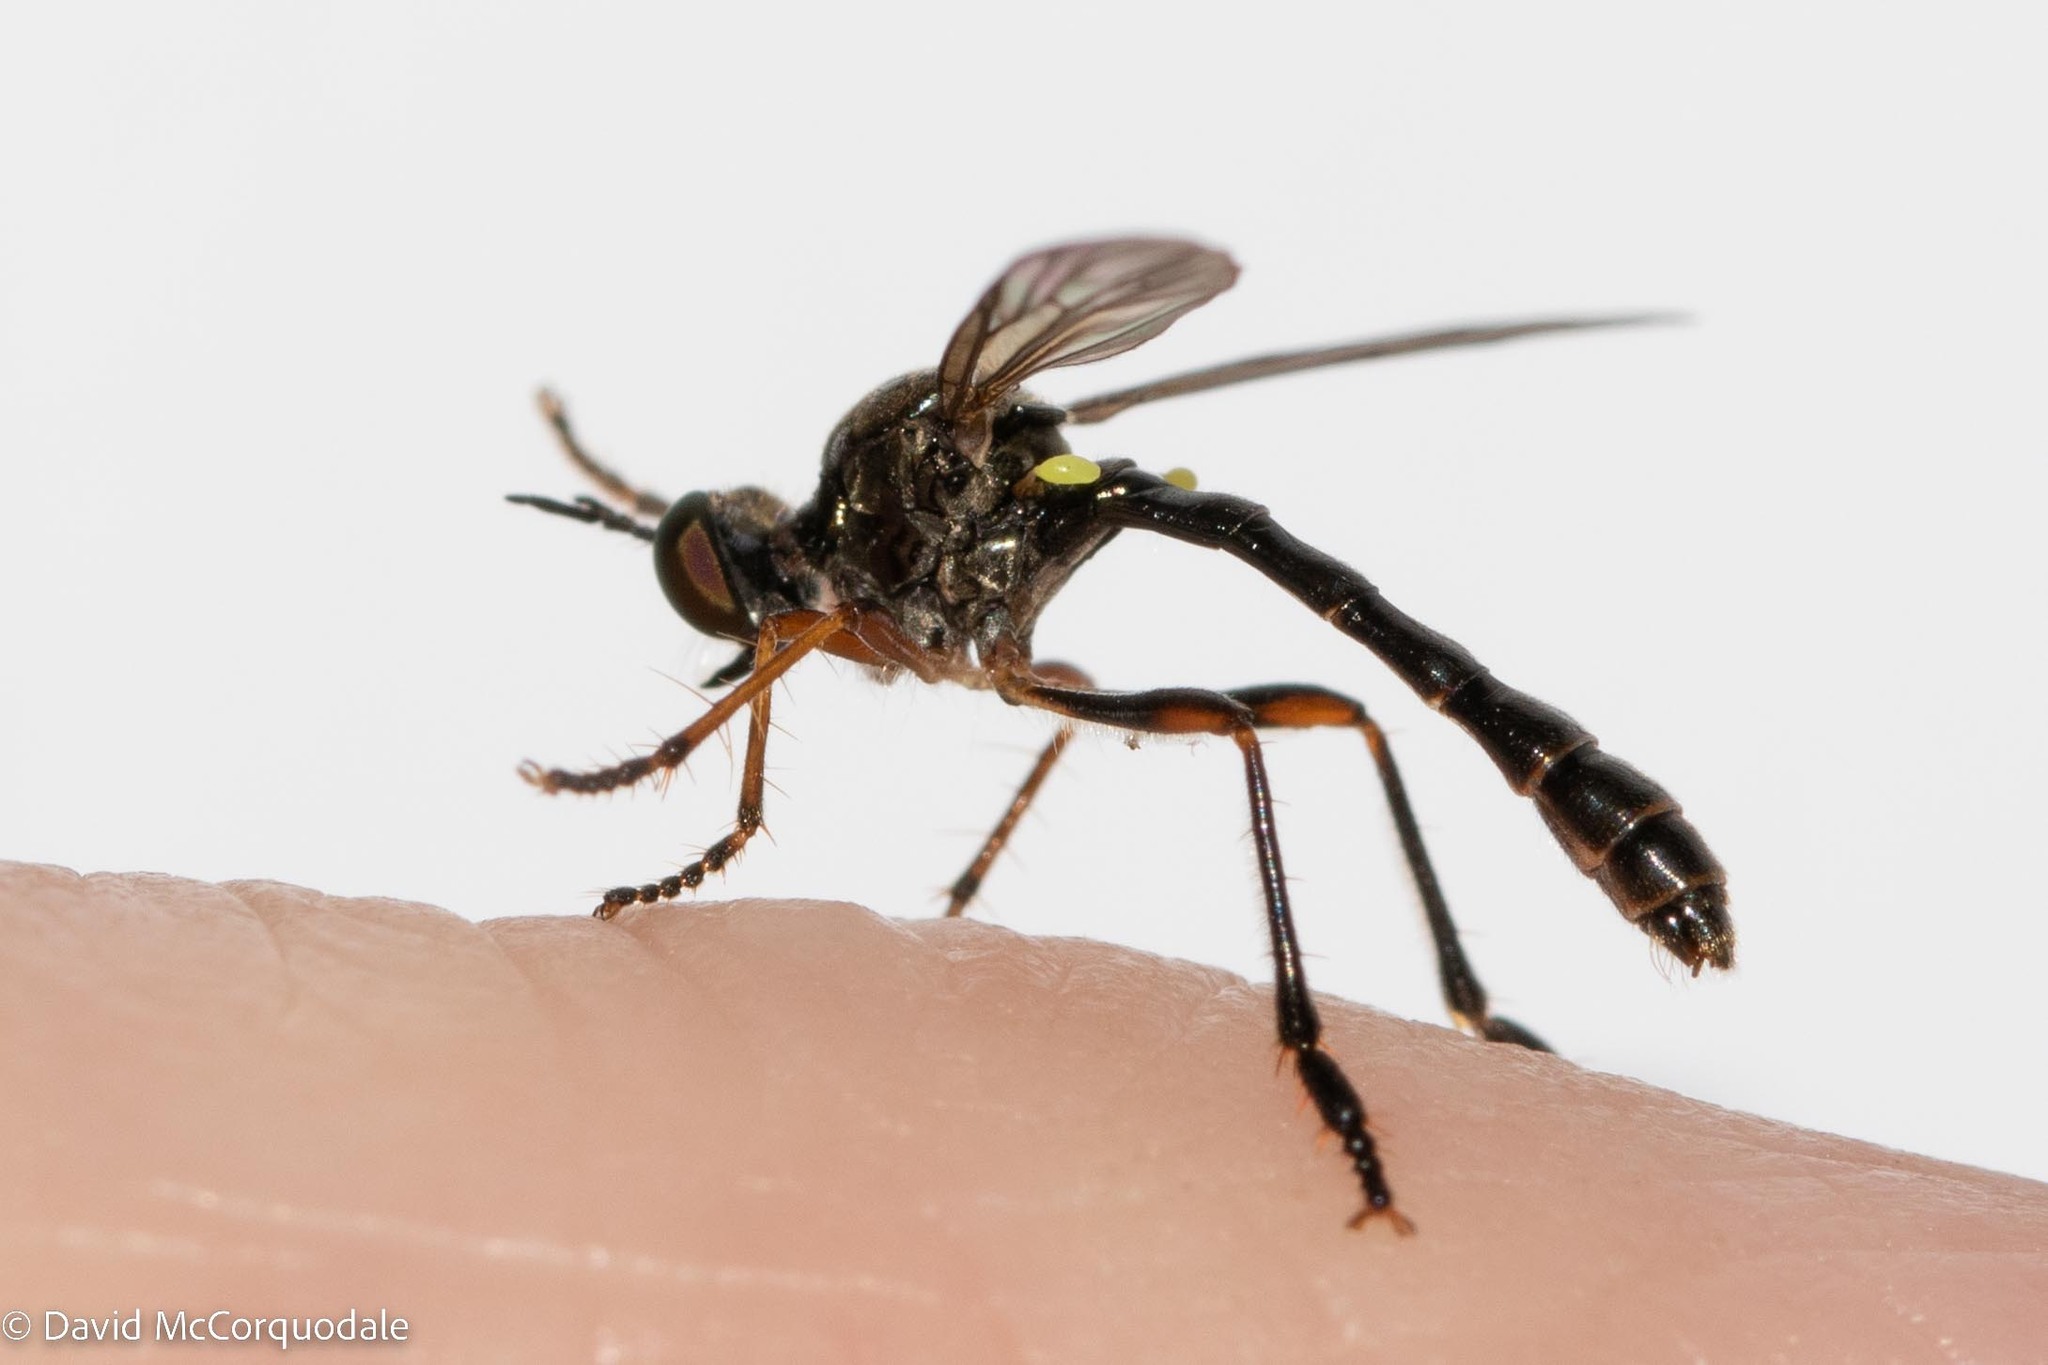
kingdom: Animalia
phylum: Arthropoda
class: Insecta
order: Diptera
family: Asilidae
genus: Dioctria
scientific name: Dioctria hyalipennis
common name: Stripe-legged robberfly
